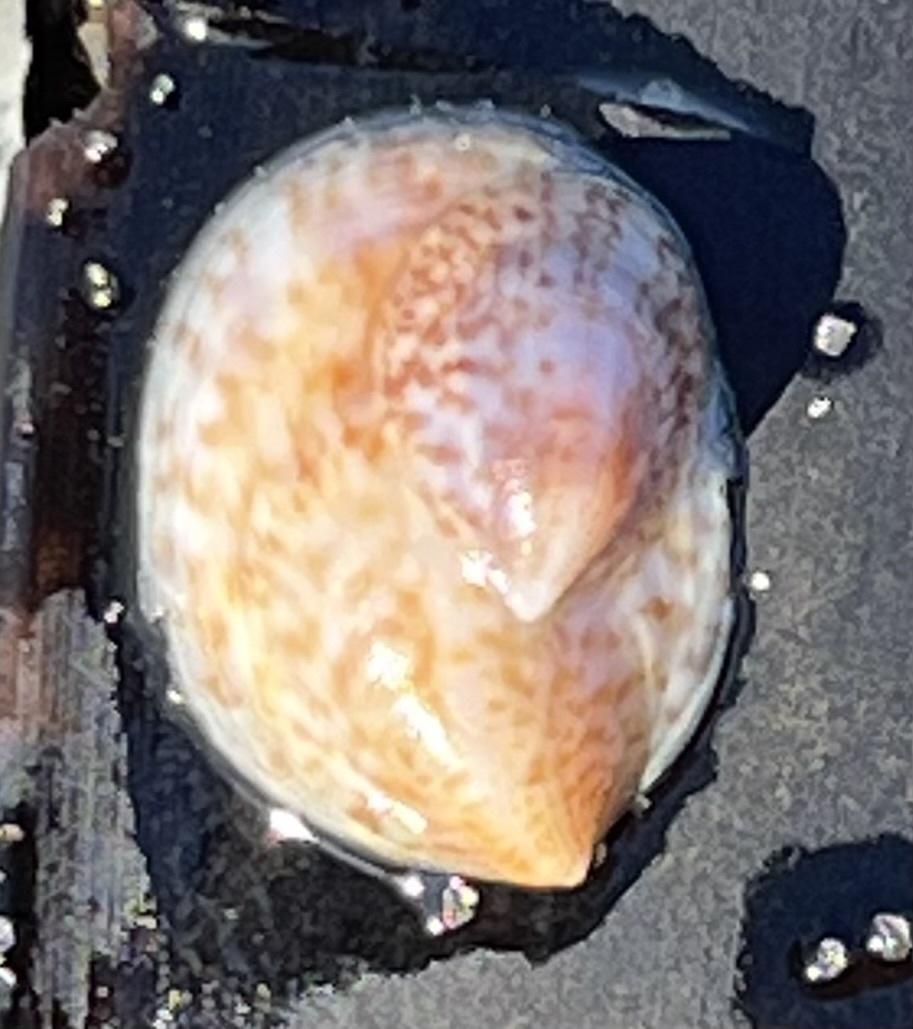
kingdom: Animalia
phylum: Mollusca
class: Gastropoda
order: Littorinimorpha
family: Calyptraeidae
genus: Crepidula
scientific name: Crepidula fornicata
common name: Slipper limpet
